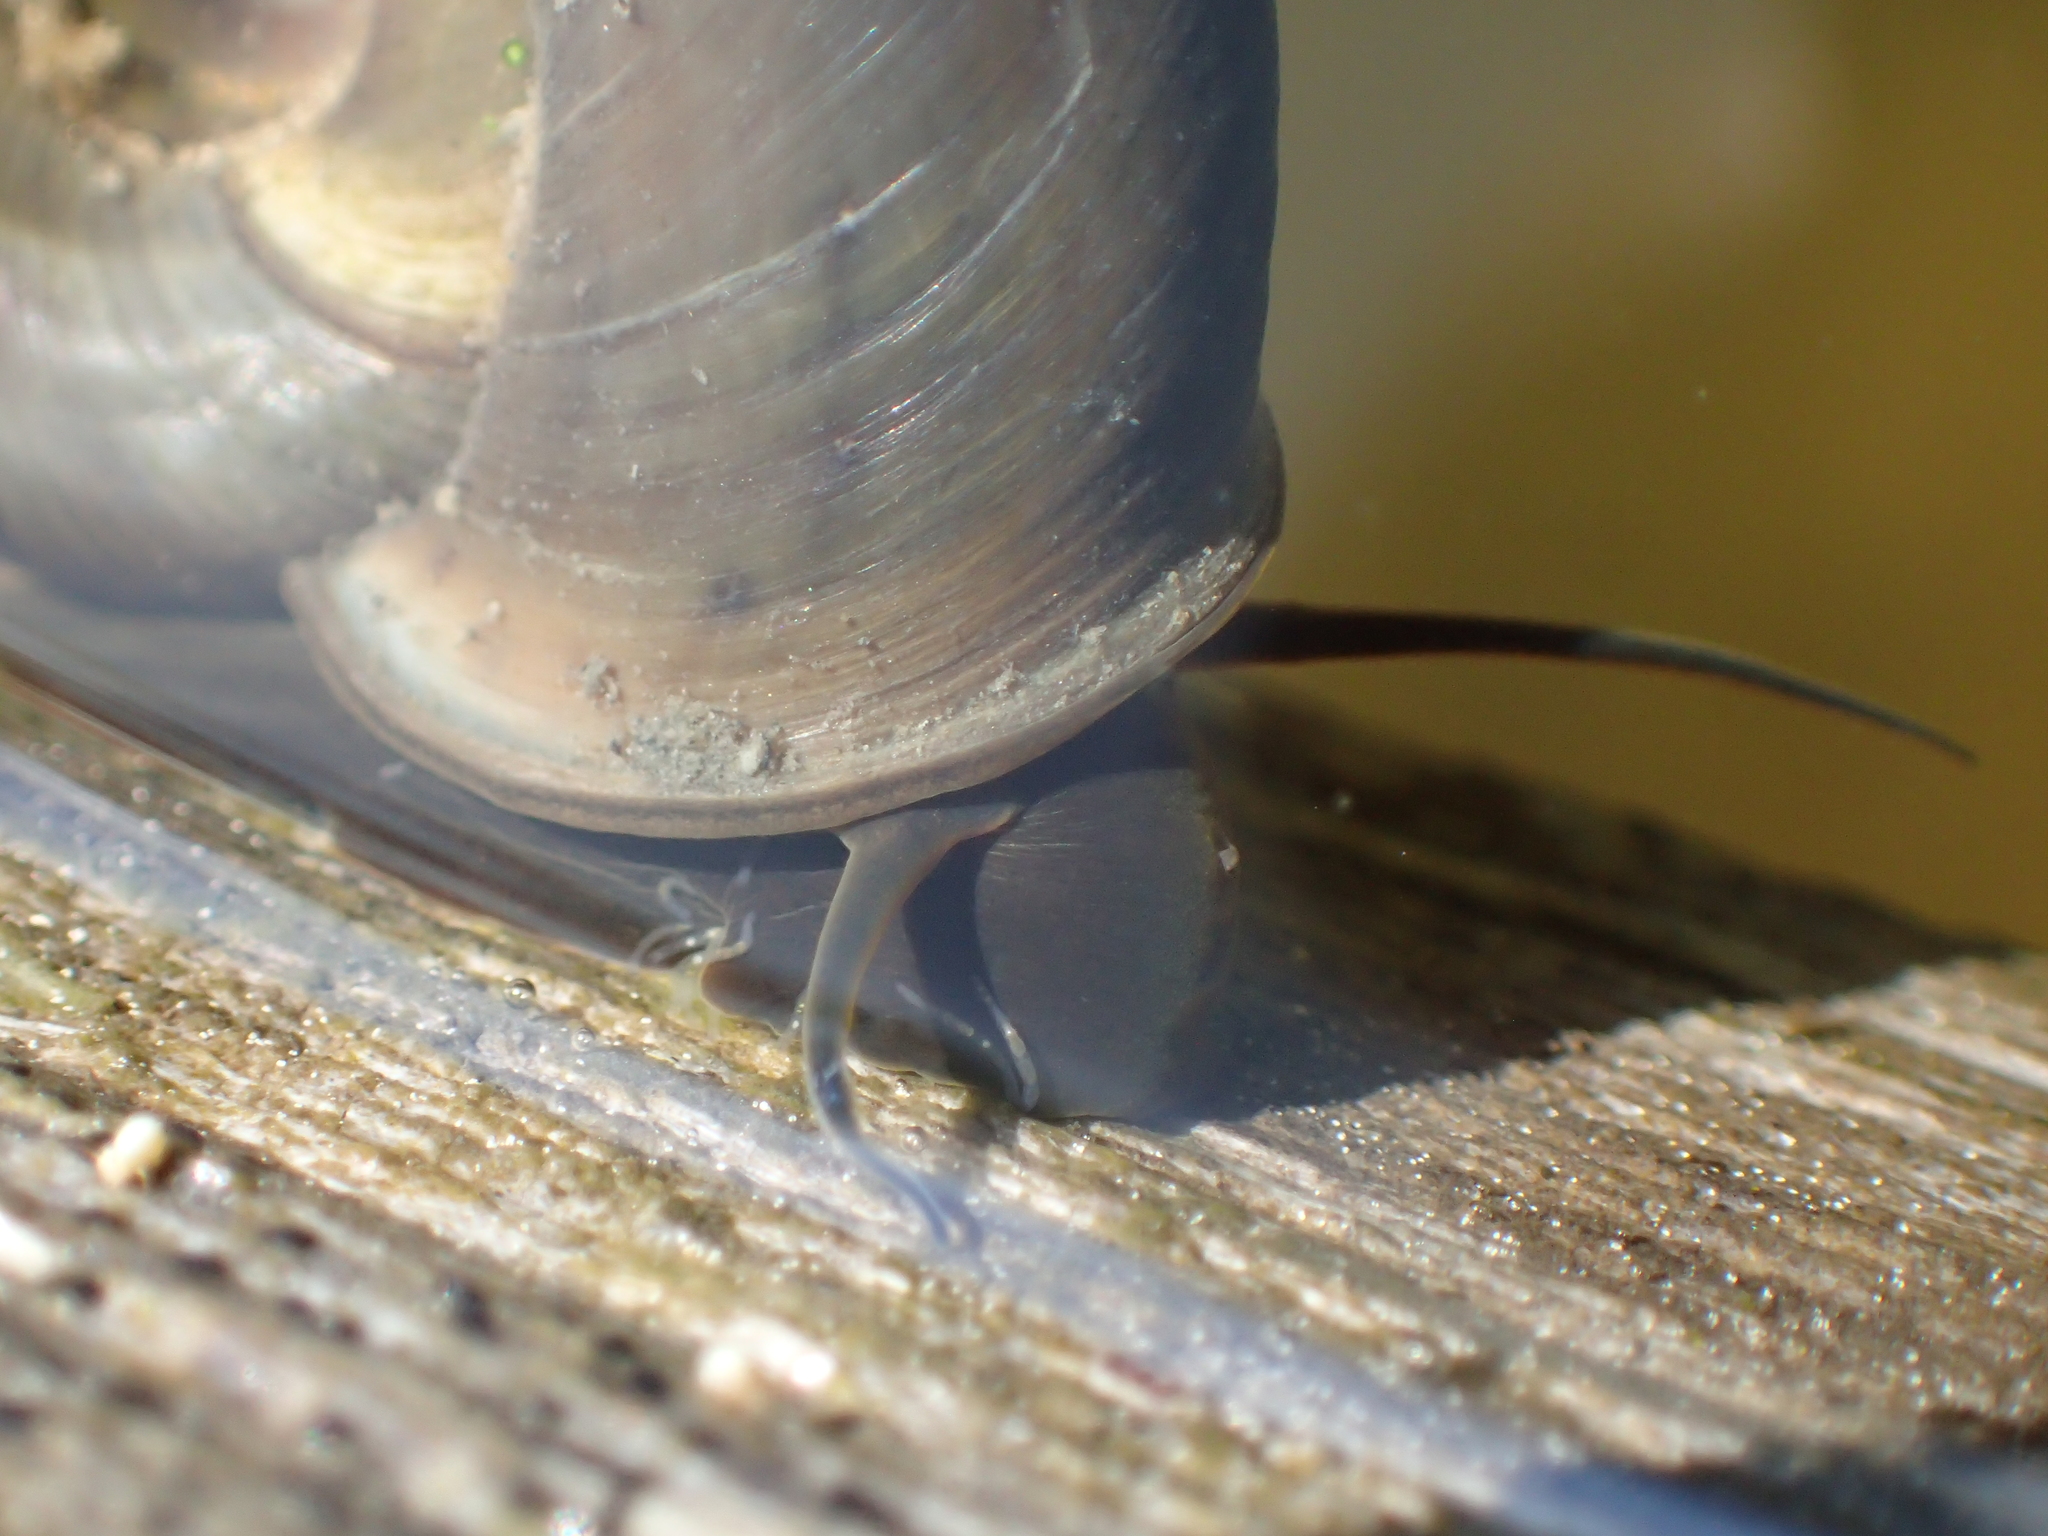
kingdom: Animalia
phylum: Mollusca
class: Gastropoda
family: Planorbidae
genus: Planorbarius
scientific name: Planorbarius corneus
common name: Great ramshorn
